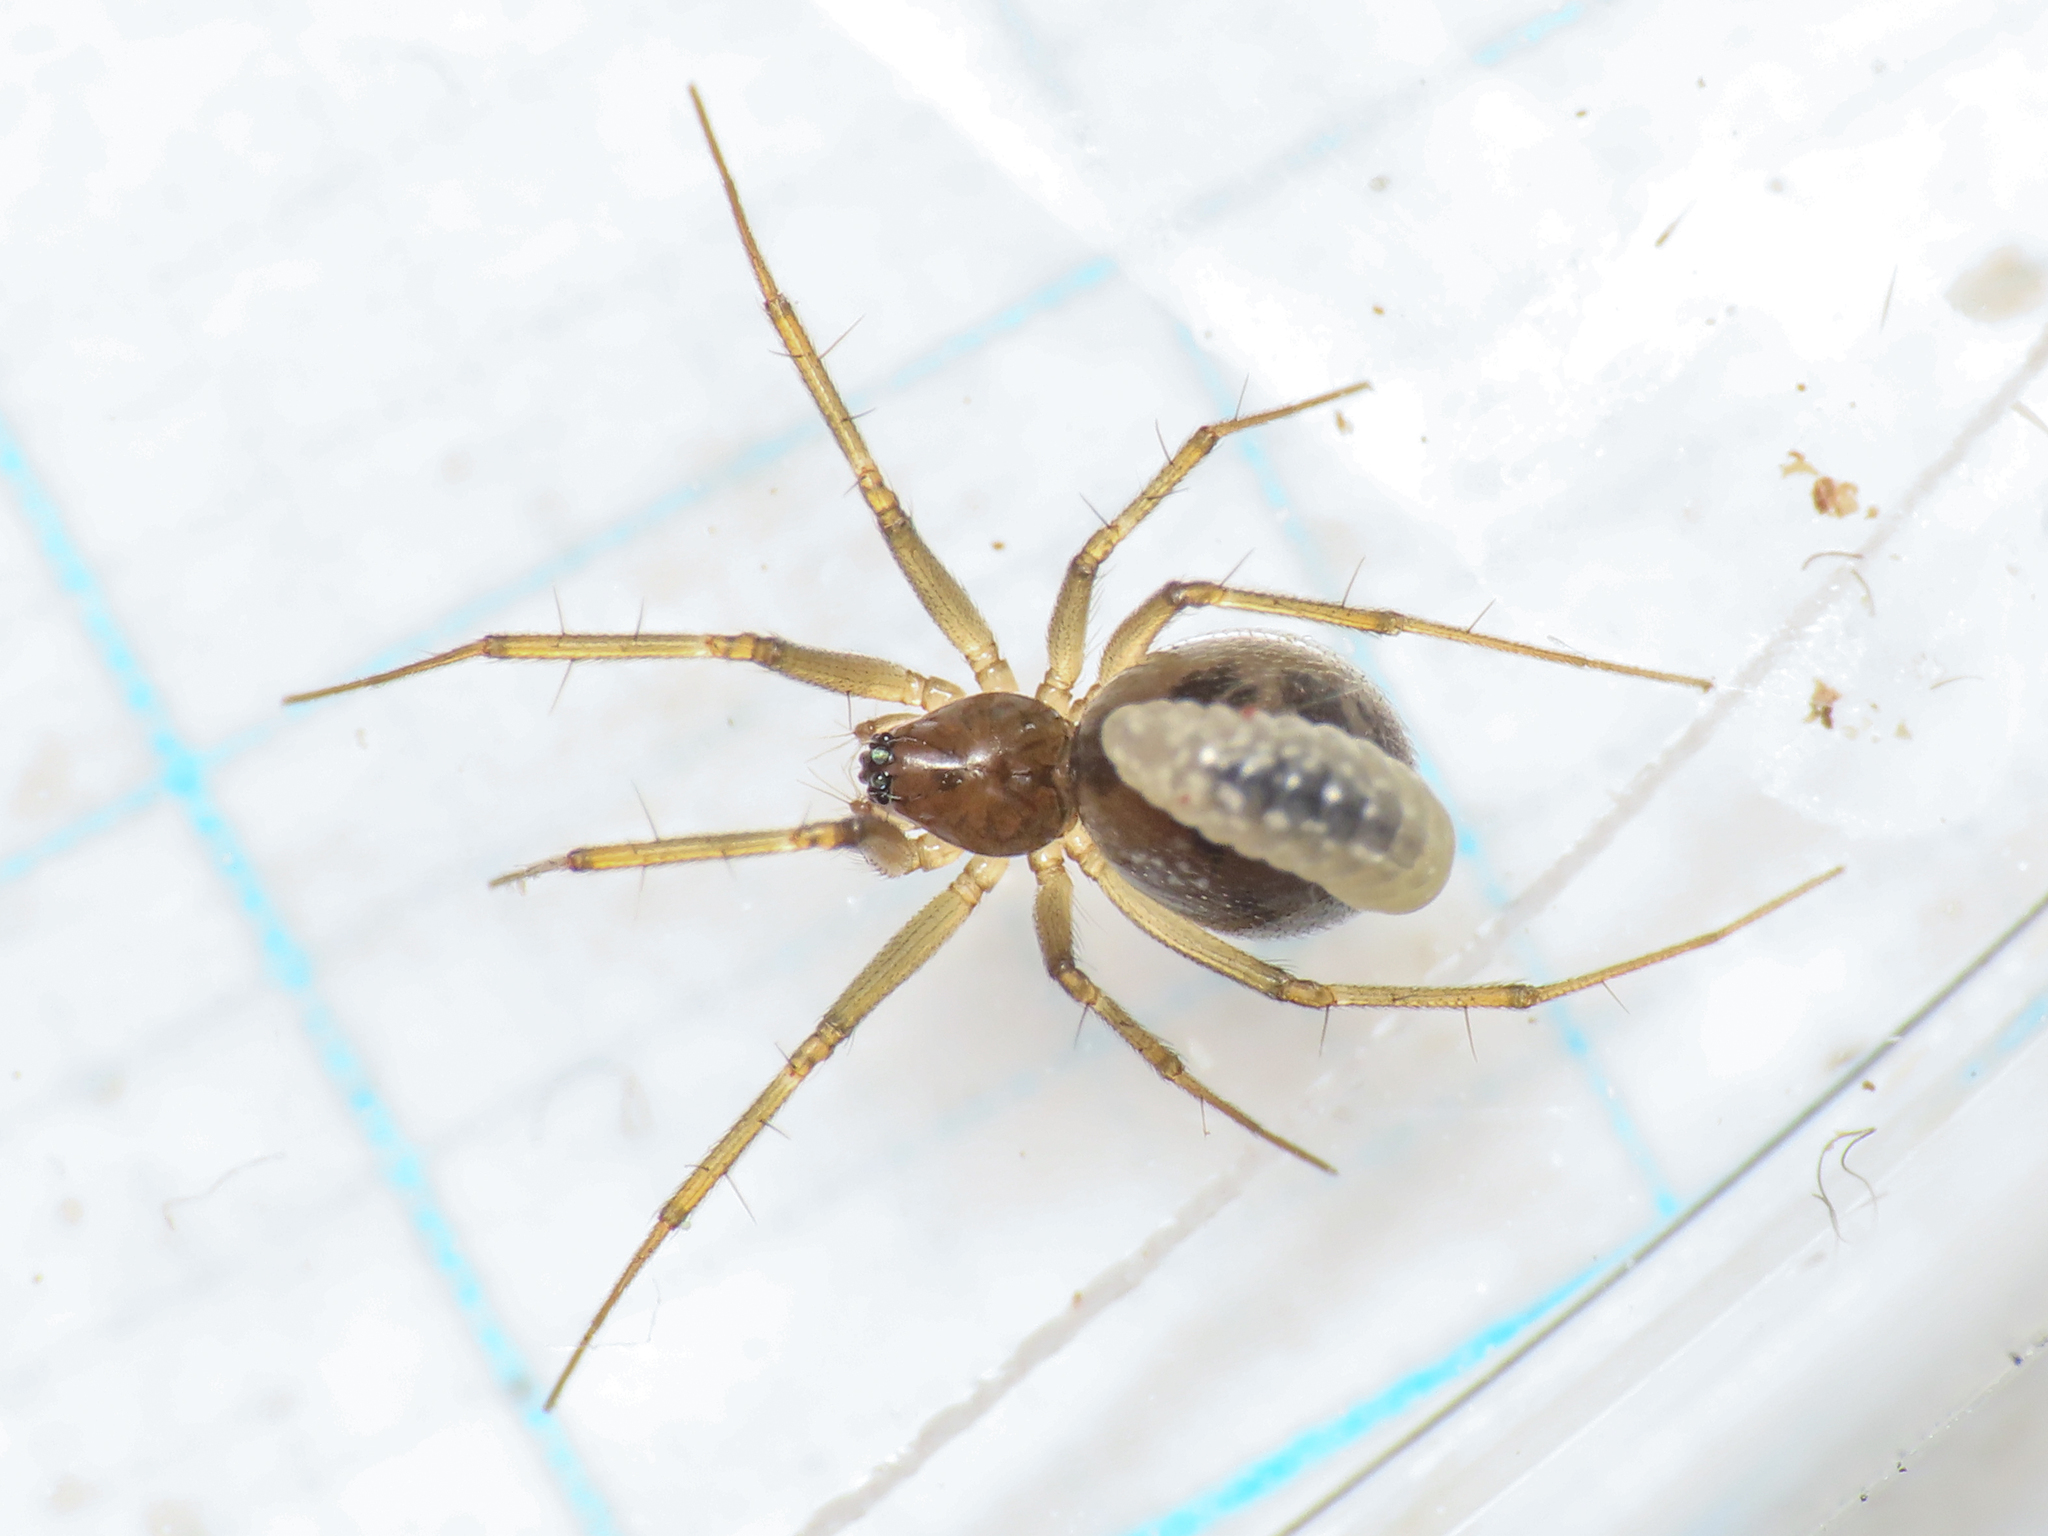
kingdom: Animalia
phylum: Arthropoda
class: Arachnida
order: Araneae
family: Linyphiidae
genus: Tenuiphantes
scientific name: Tenuiphantes tenuis
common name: Dwarf weaver
